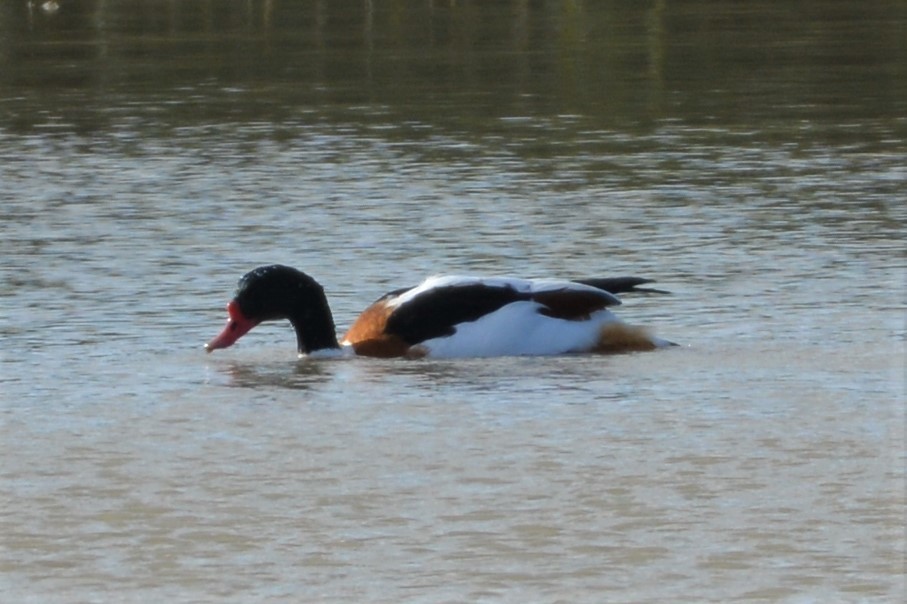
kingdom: Animalia
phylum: Chordata
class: Aves
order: Anseriformes
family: Anatidae
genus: Tadorna
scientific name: Tadorna tadorna
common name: Common shelduck
